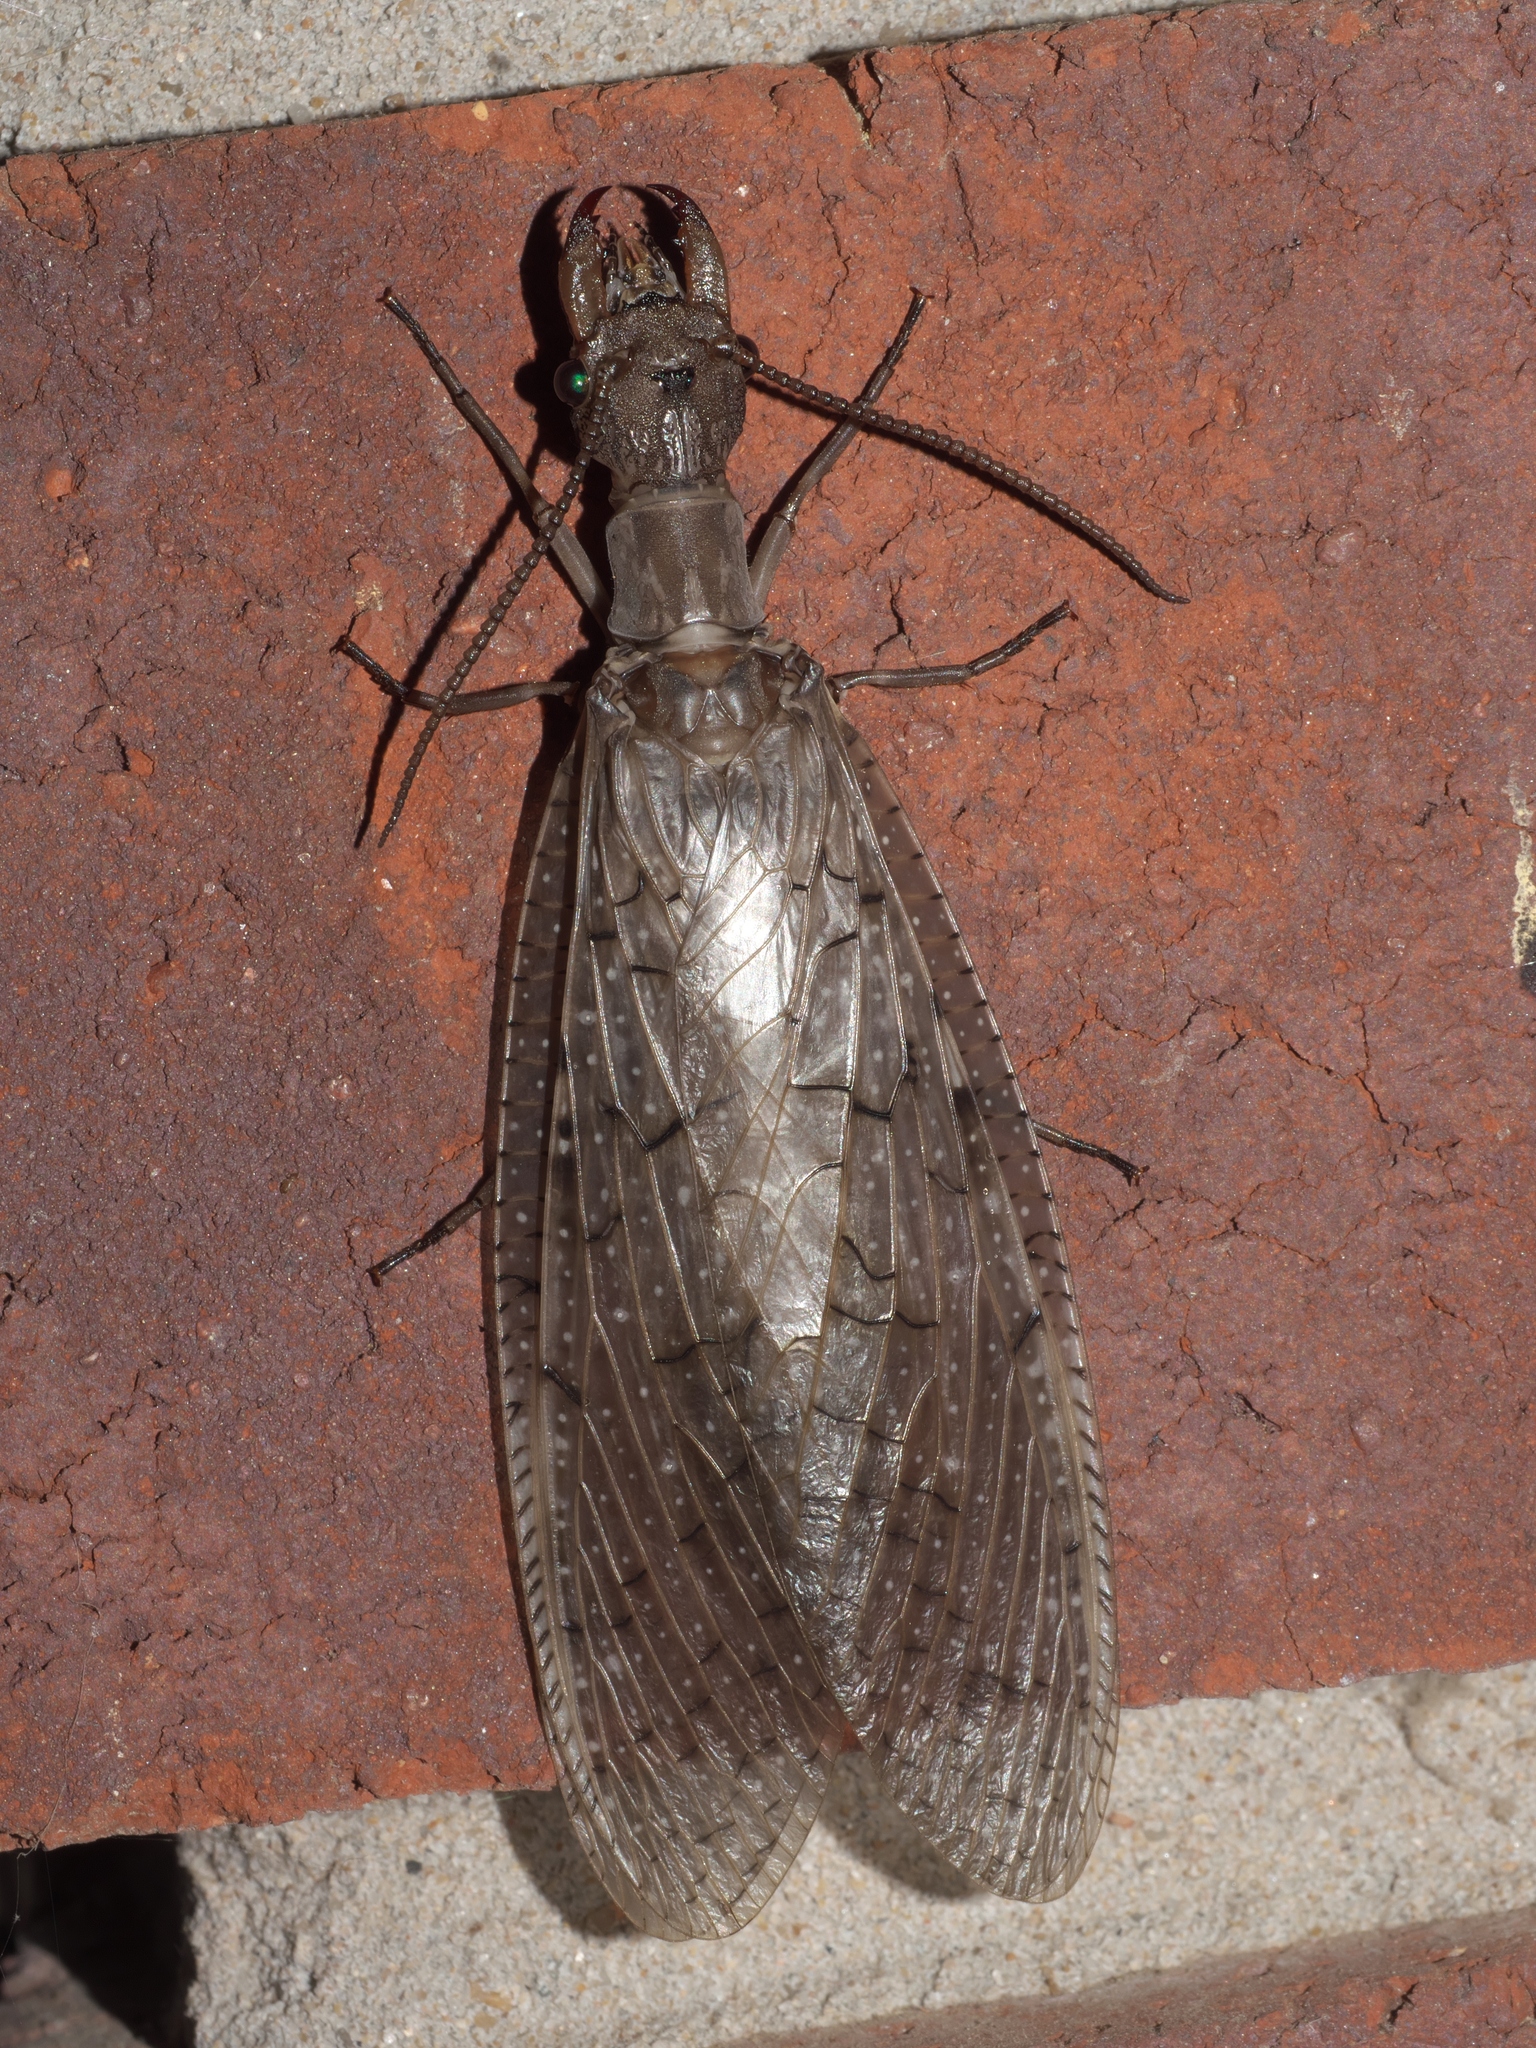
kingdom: Animalia
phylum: Arthropoda
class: Insecta
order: Megaloptera
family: Corydalidae
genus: Corydalus
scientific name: Corydalus cornutus
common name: Dobsonfly
